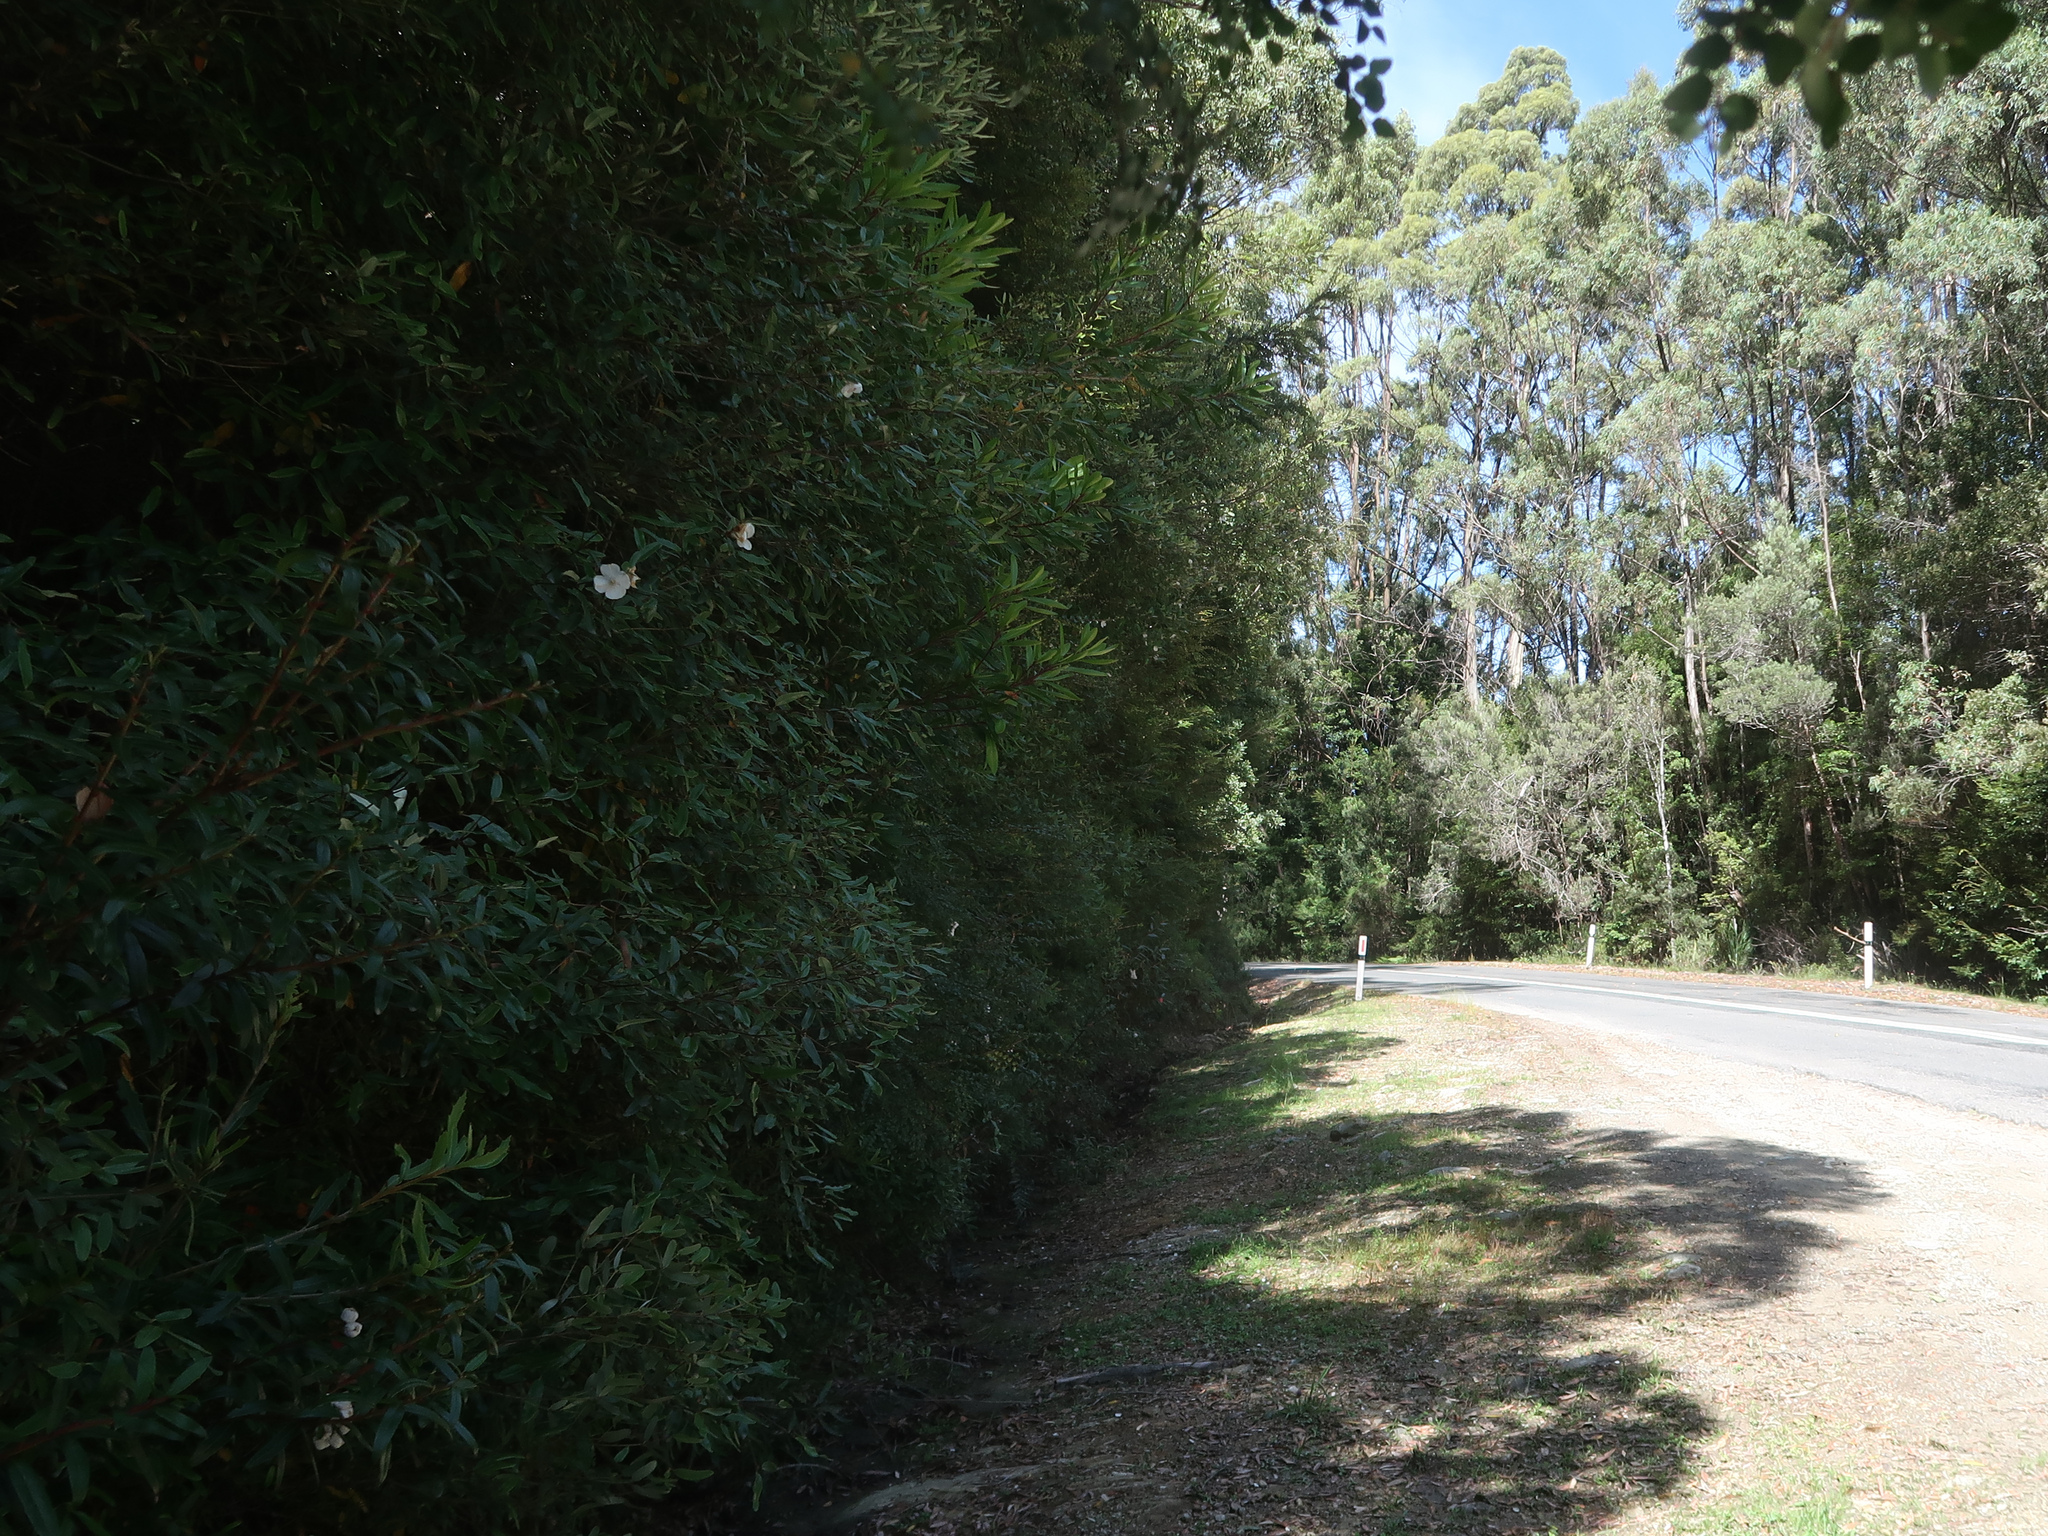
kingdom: Plantae
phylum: Tracheophyta
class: Magnoliopsida
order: Oxalidales
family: Cunoniaceae
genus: Eucryphia
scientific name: Eucryphia lucida
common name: Leatherwood
